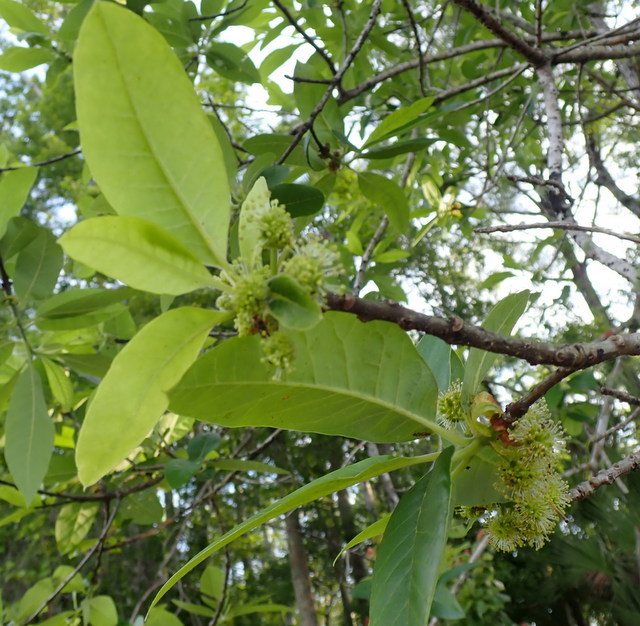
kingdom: Plantae
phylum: Tracheophyta
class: Magnoliopsida
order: Cornales
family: Nyssaceae
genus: Nyssa
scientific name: Nyssa ogeche
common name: Ogeechee tupelo
